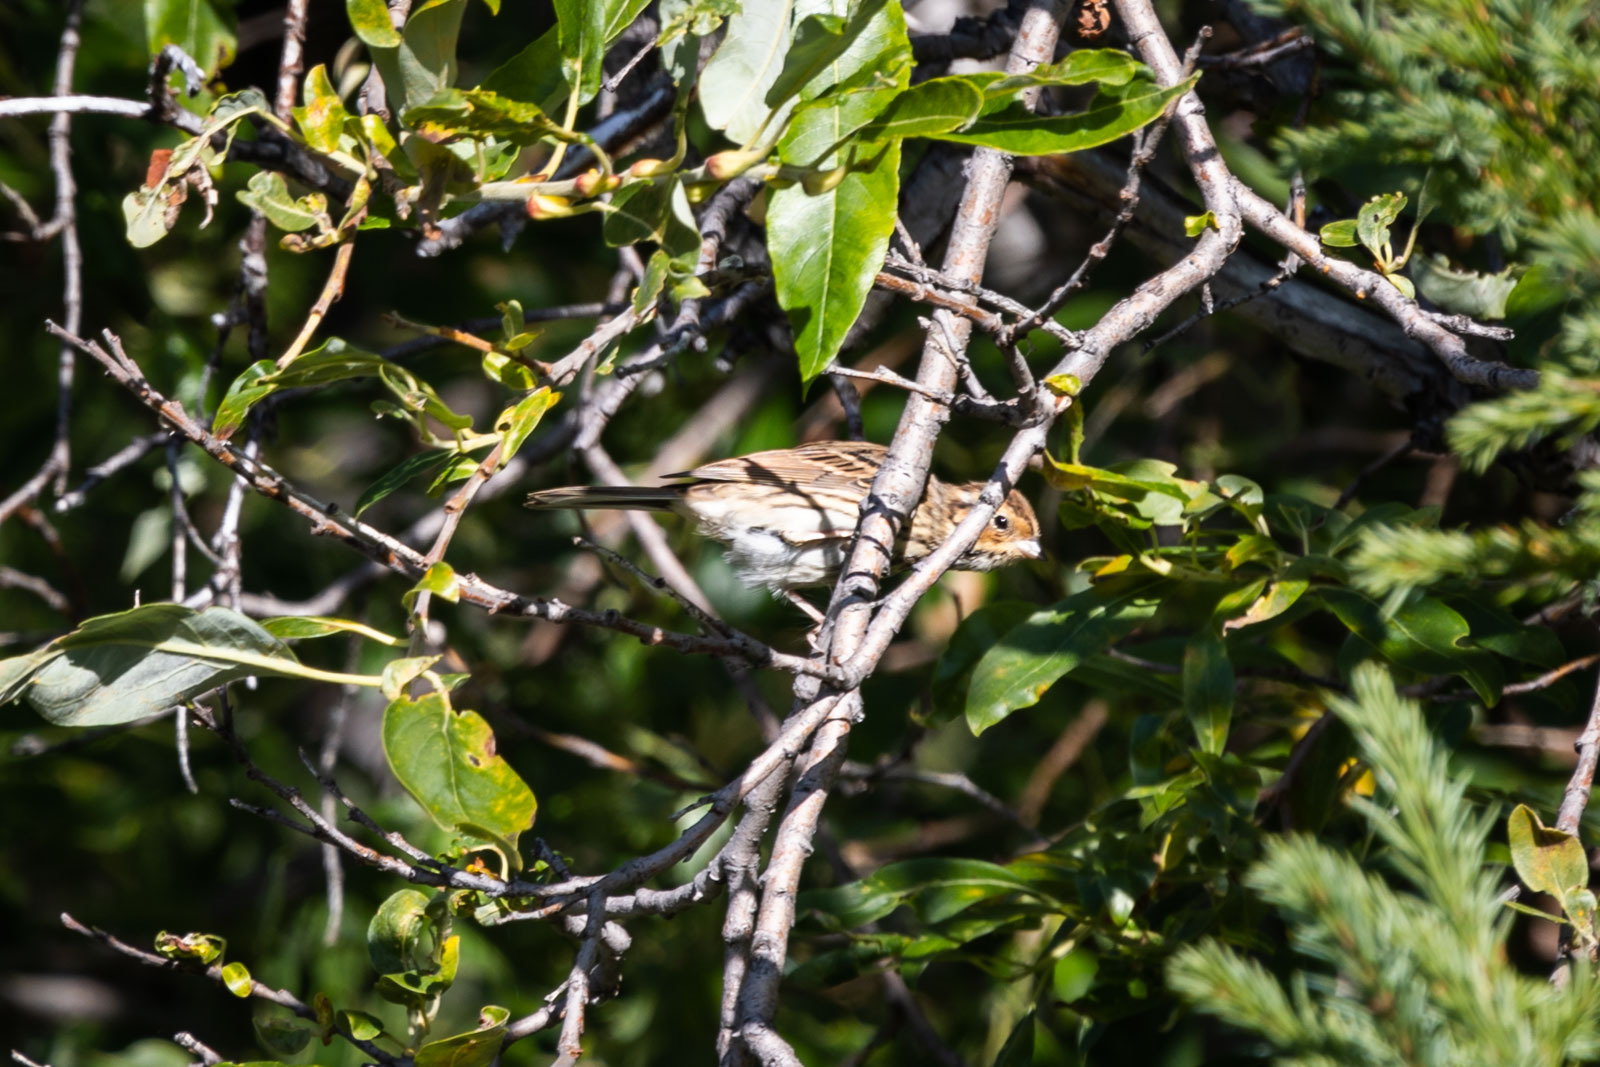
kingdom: Animalia
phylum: Chordata
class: Aves
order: Passeriformes
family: Emberizidae
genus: Emberiza
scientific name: Emberiza pusilla
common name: Little bunting
